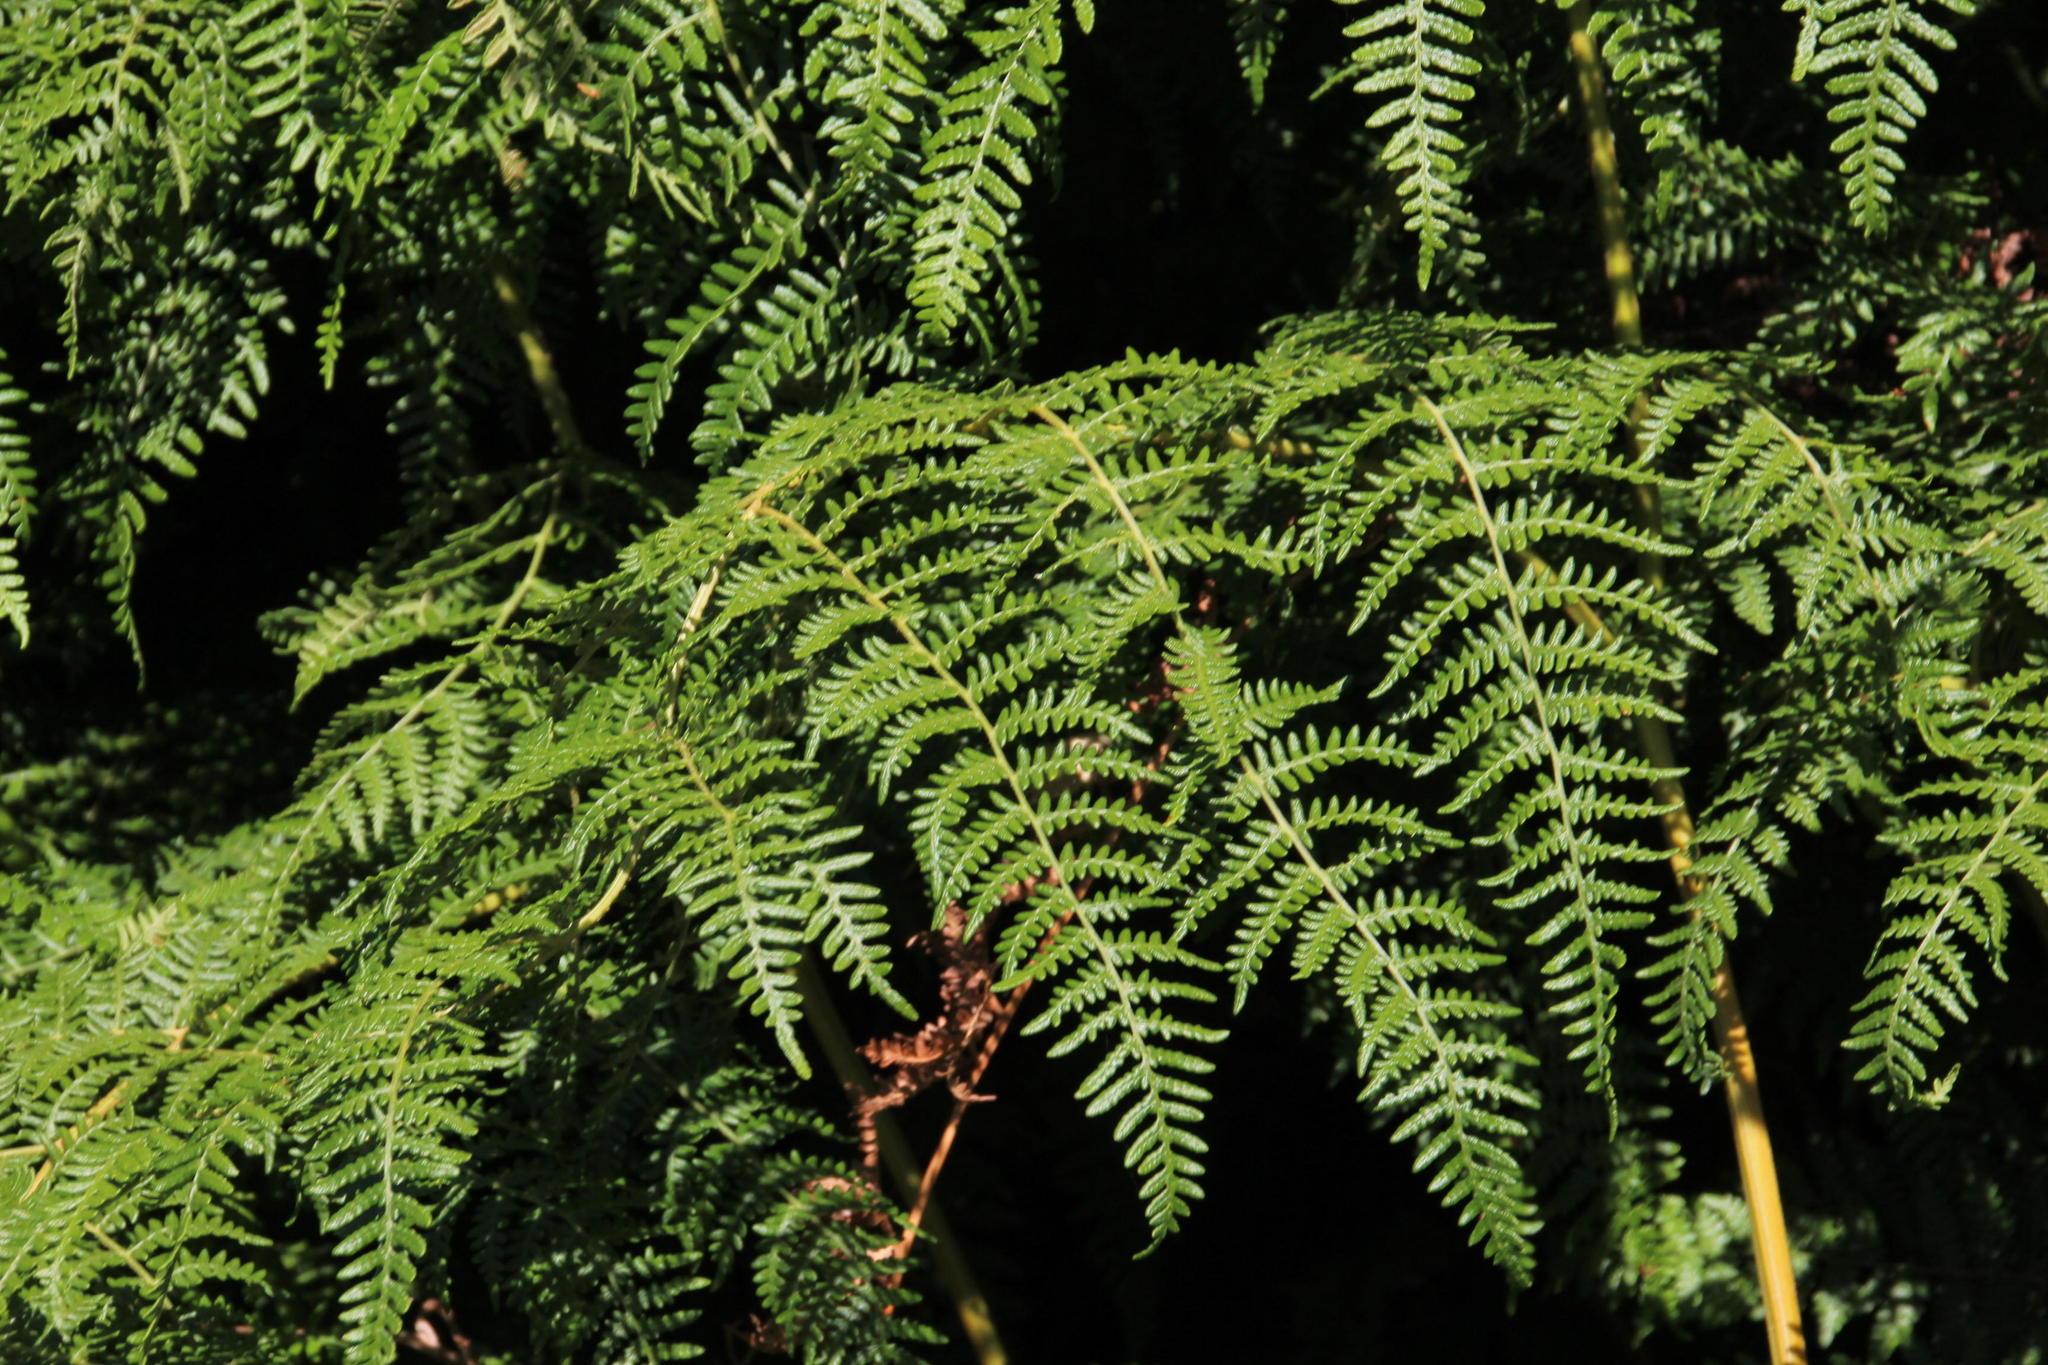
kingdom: Plantae
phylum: Tracheophyta
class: Polypodiopsida
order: Polypodiales
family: Dennstaedtiaceae
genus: Pteridium
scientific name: Pteridium aquilinum
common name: Bracken
